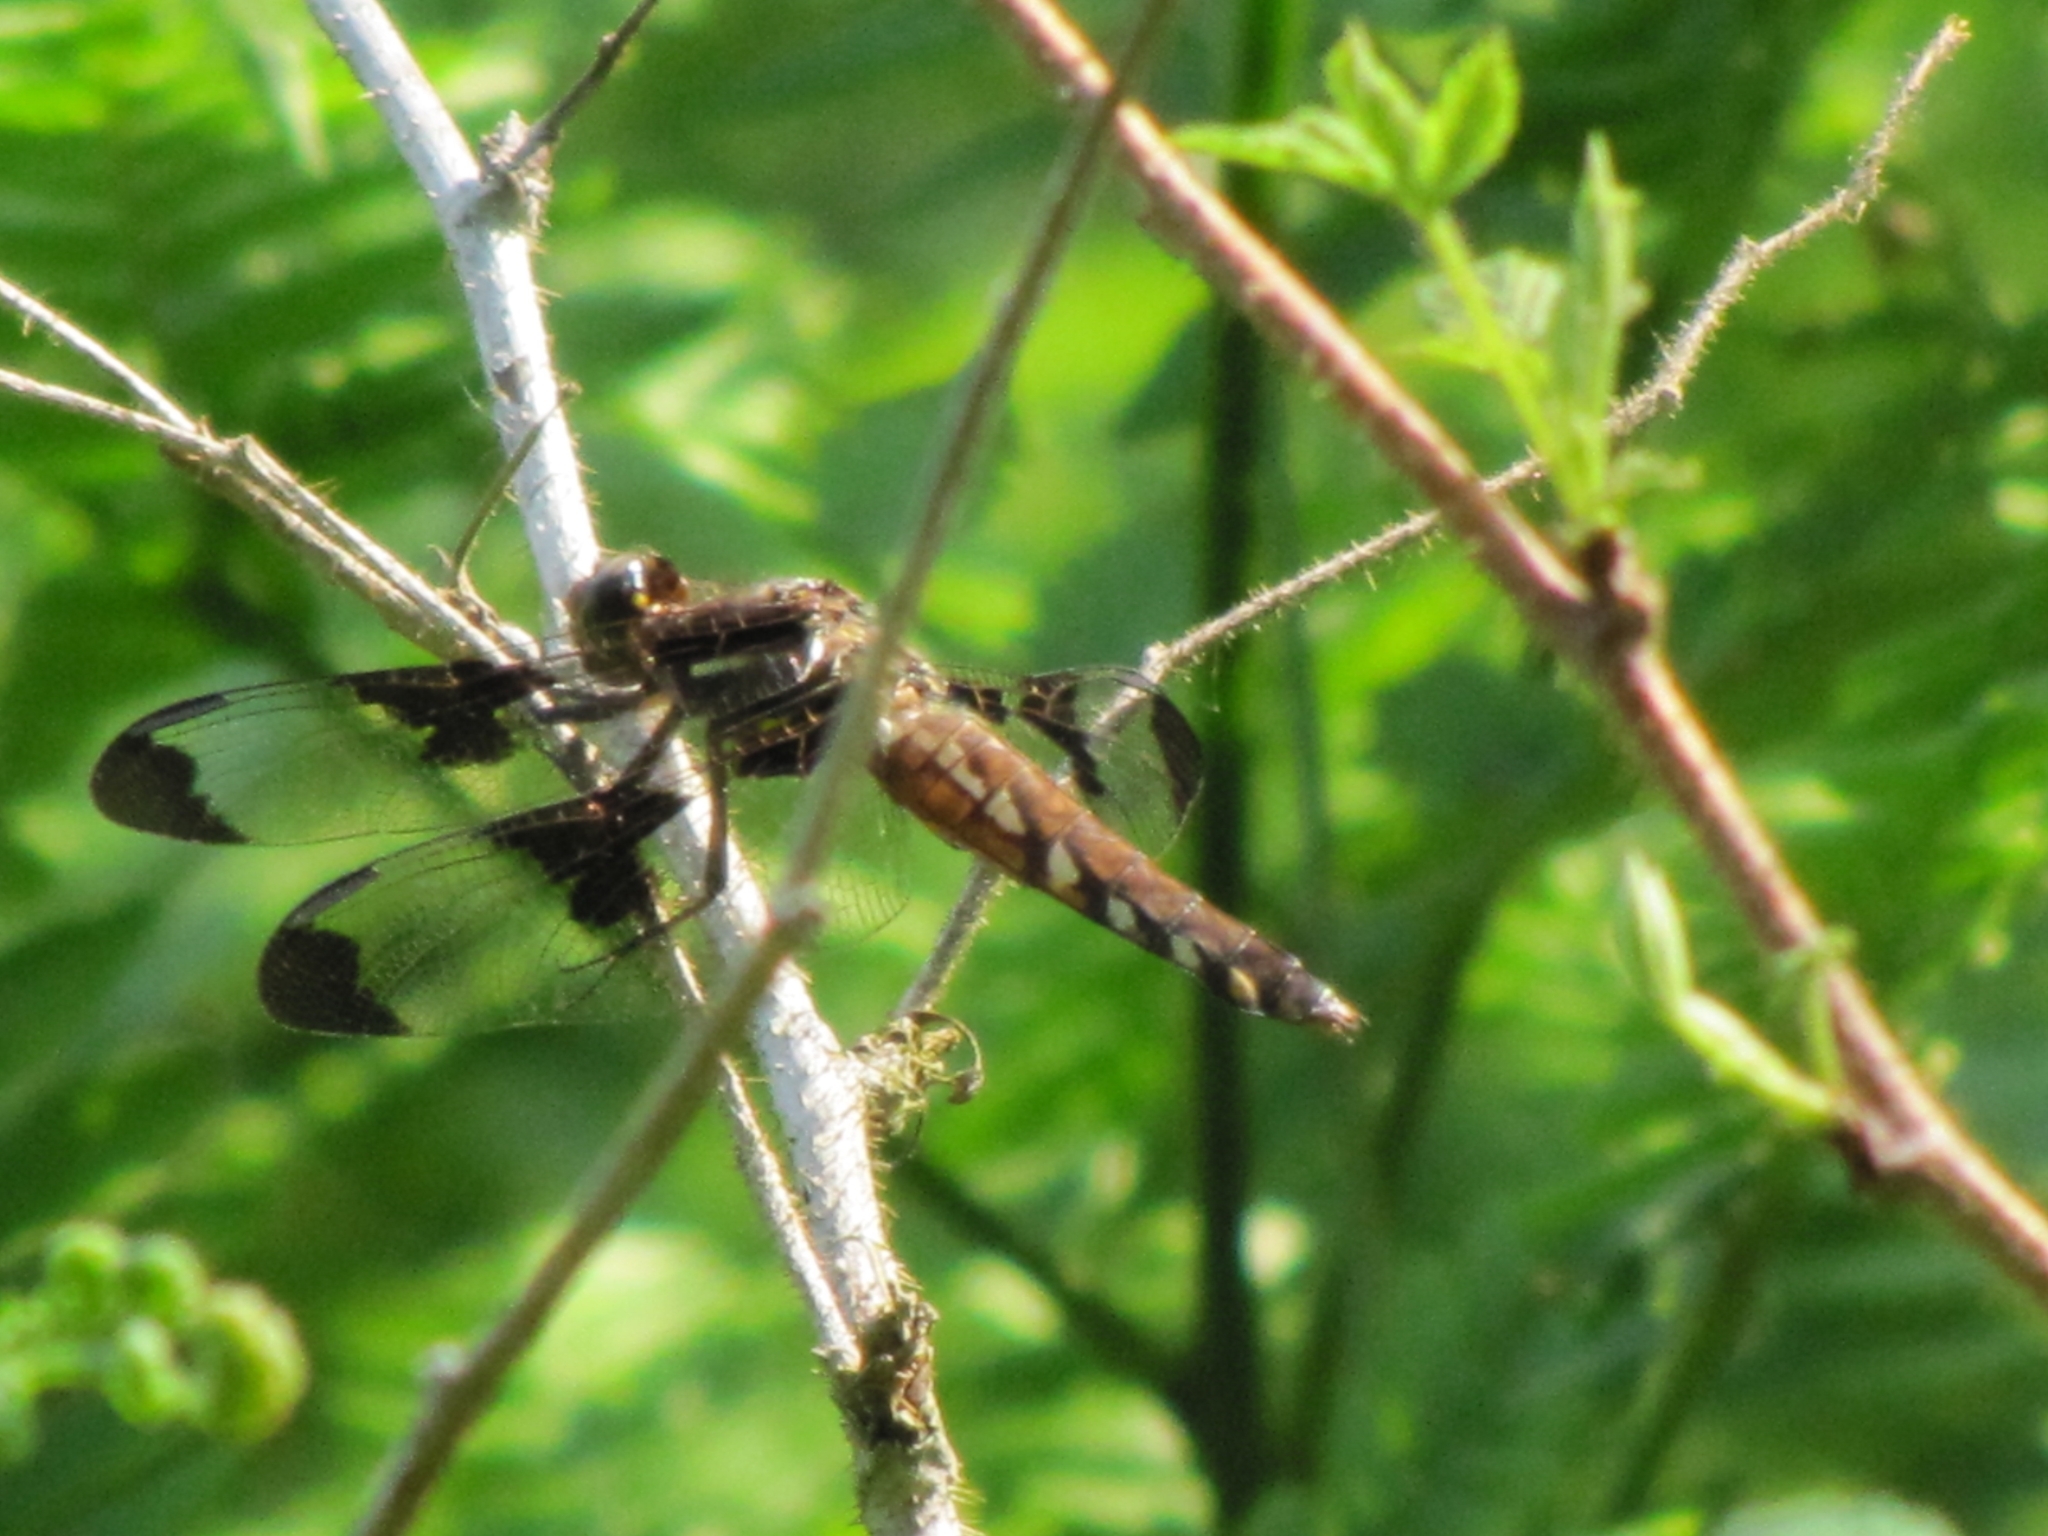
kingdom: Animalia
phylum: Arthropoda
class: Insecta
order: Odonata
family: Libellulidae
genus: Plathemis
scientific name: Plathemis lydia
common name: Common whitetail
